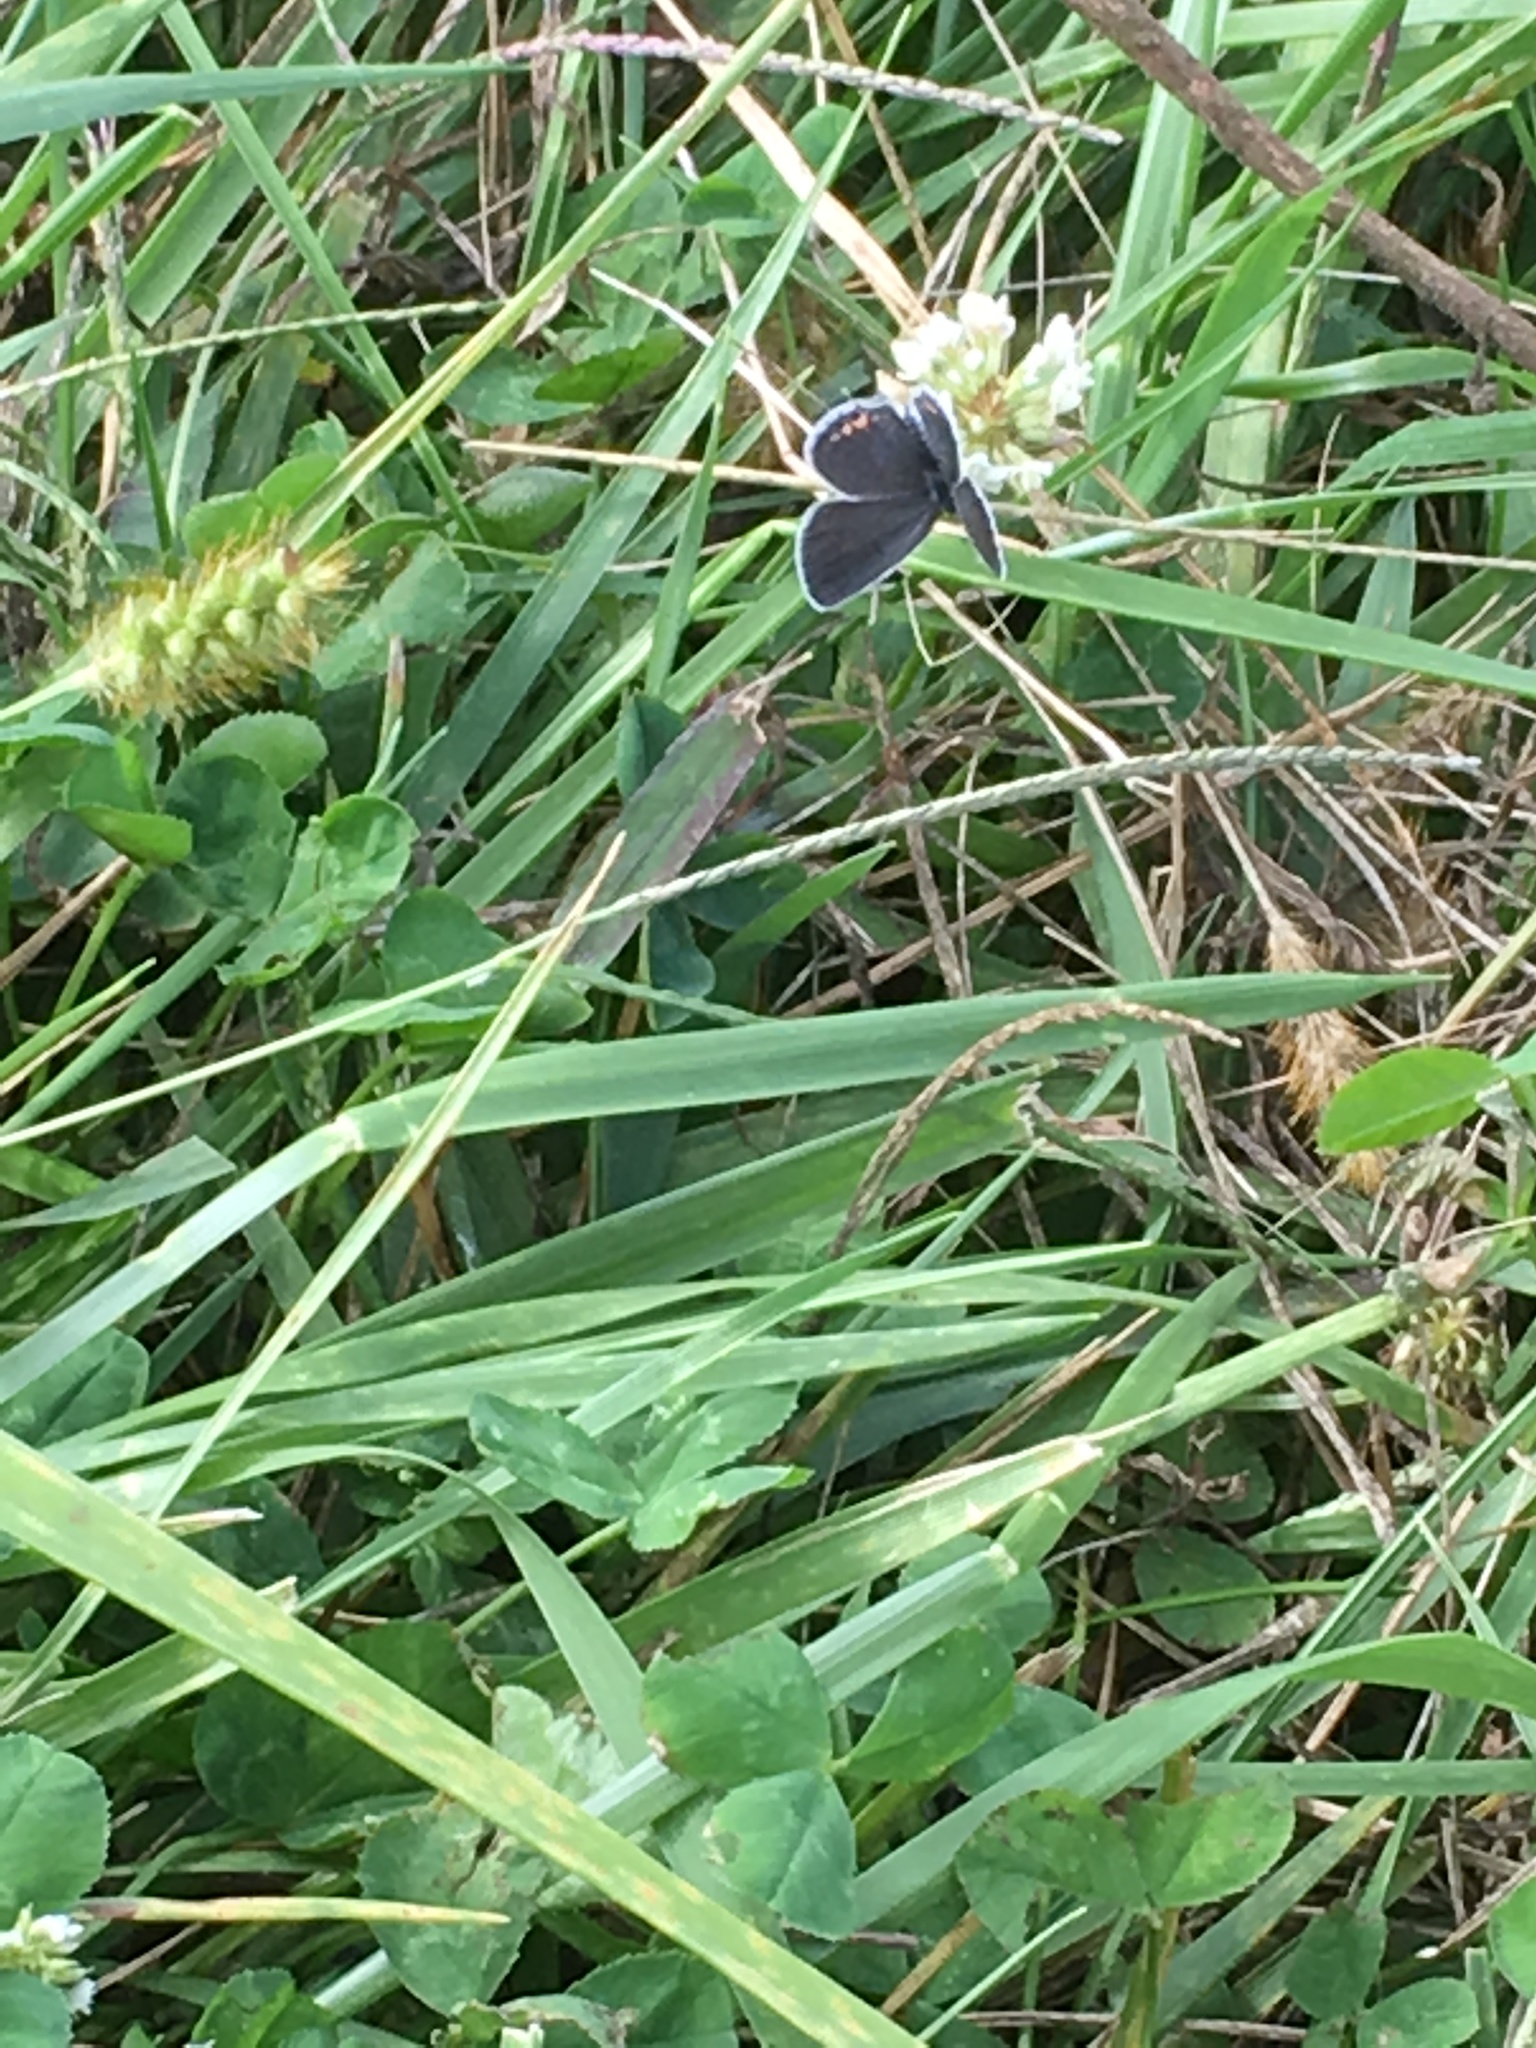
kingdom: Animalia
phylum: Arthropoda
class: Insecta
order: Lepidoptera
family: Lycaenidae
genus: Elkalyce
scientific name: Elkalyce comyntas
